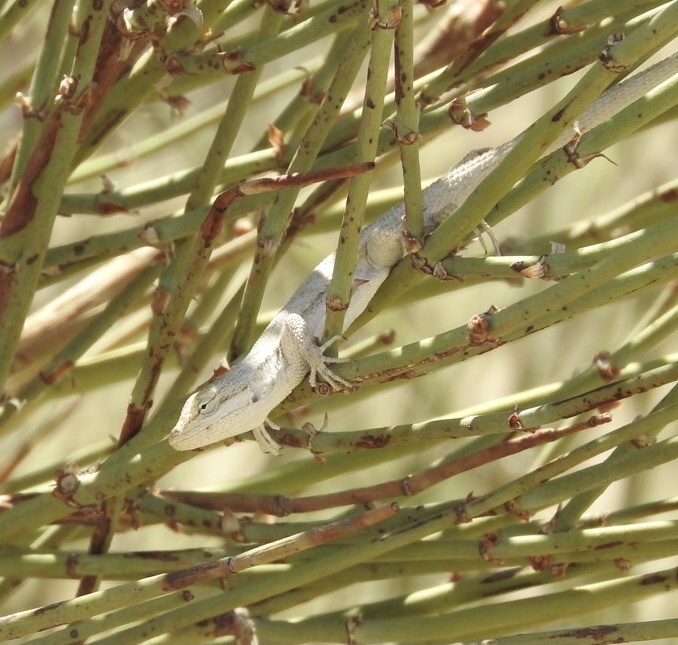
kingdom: Animalia
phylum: Chordata
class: Squamata
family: Phrynosomatidae
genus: Urosaurus
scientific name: Urosaurus graciosus
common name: Long-tailed brush lizard
